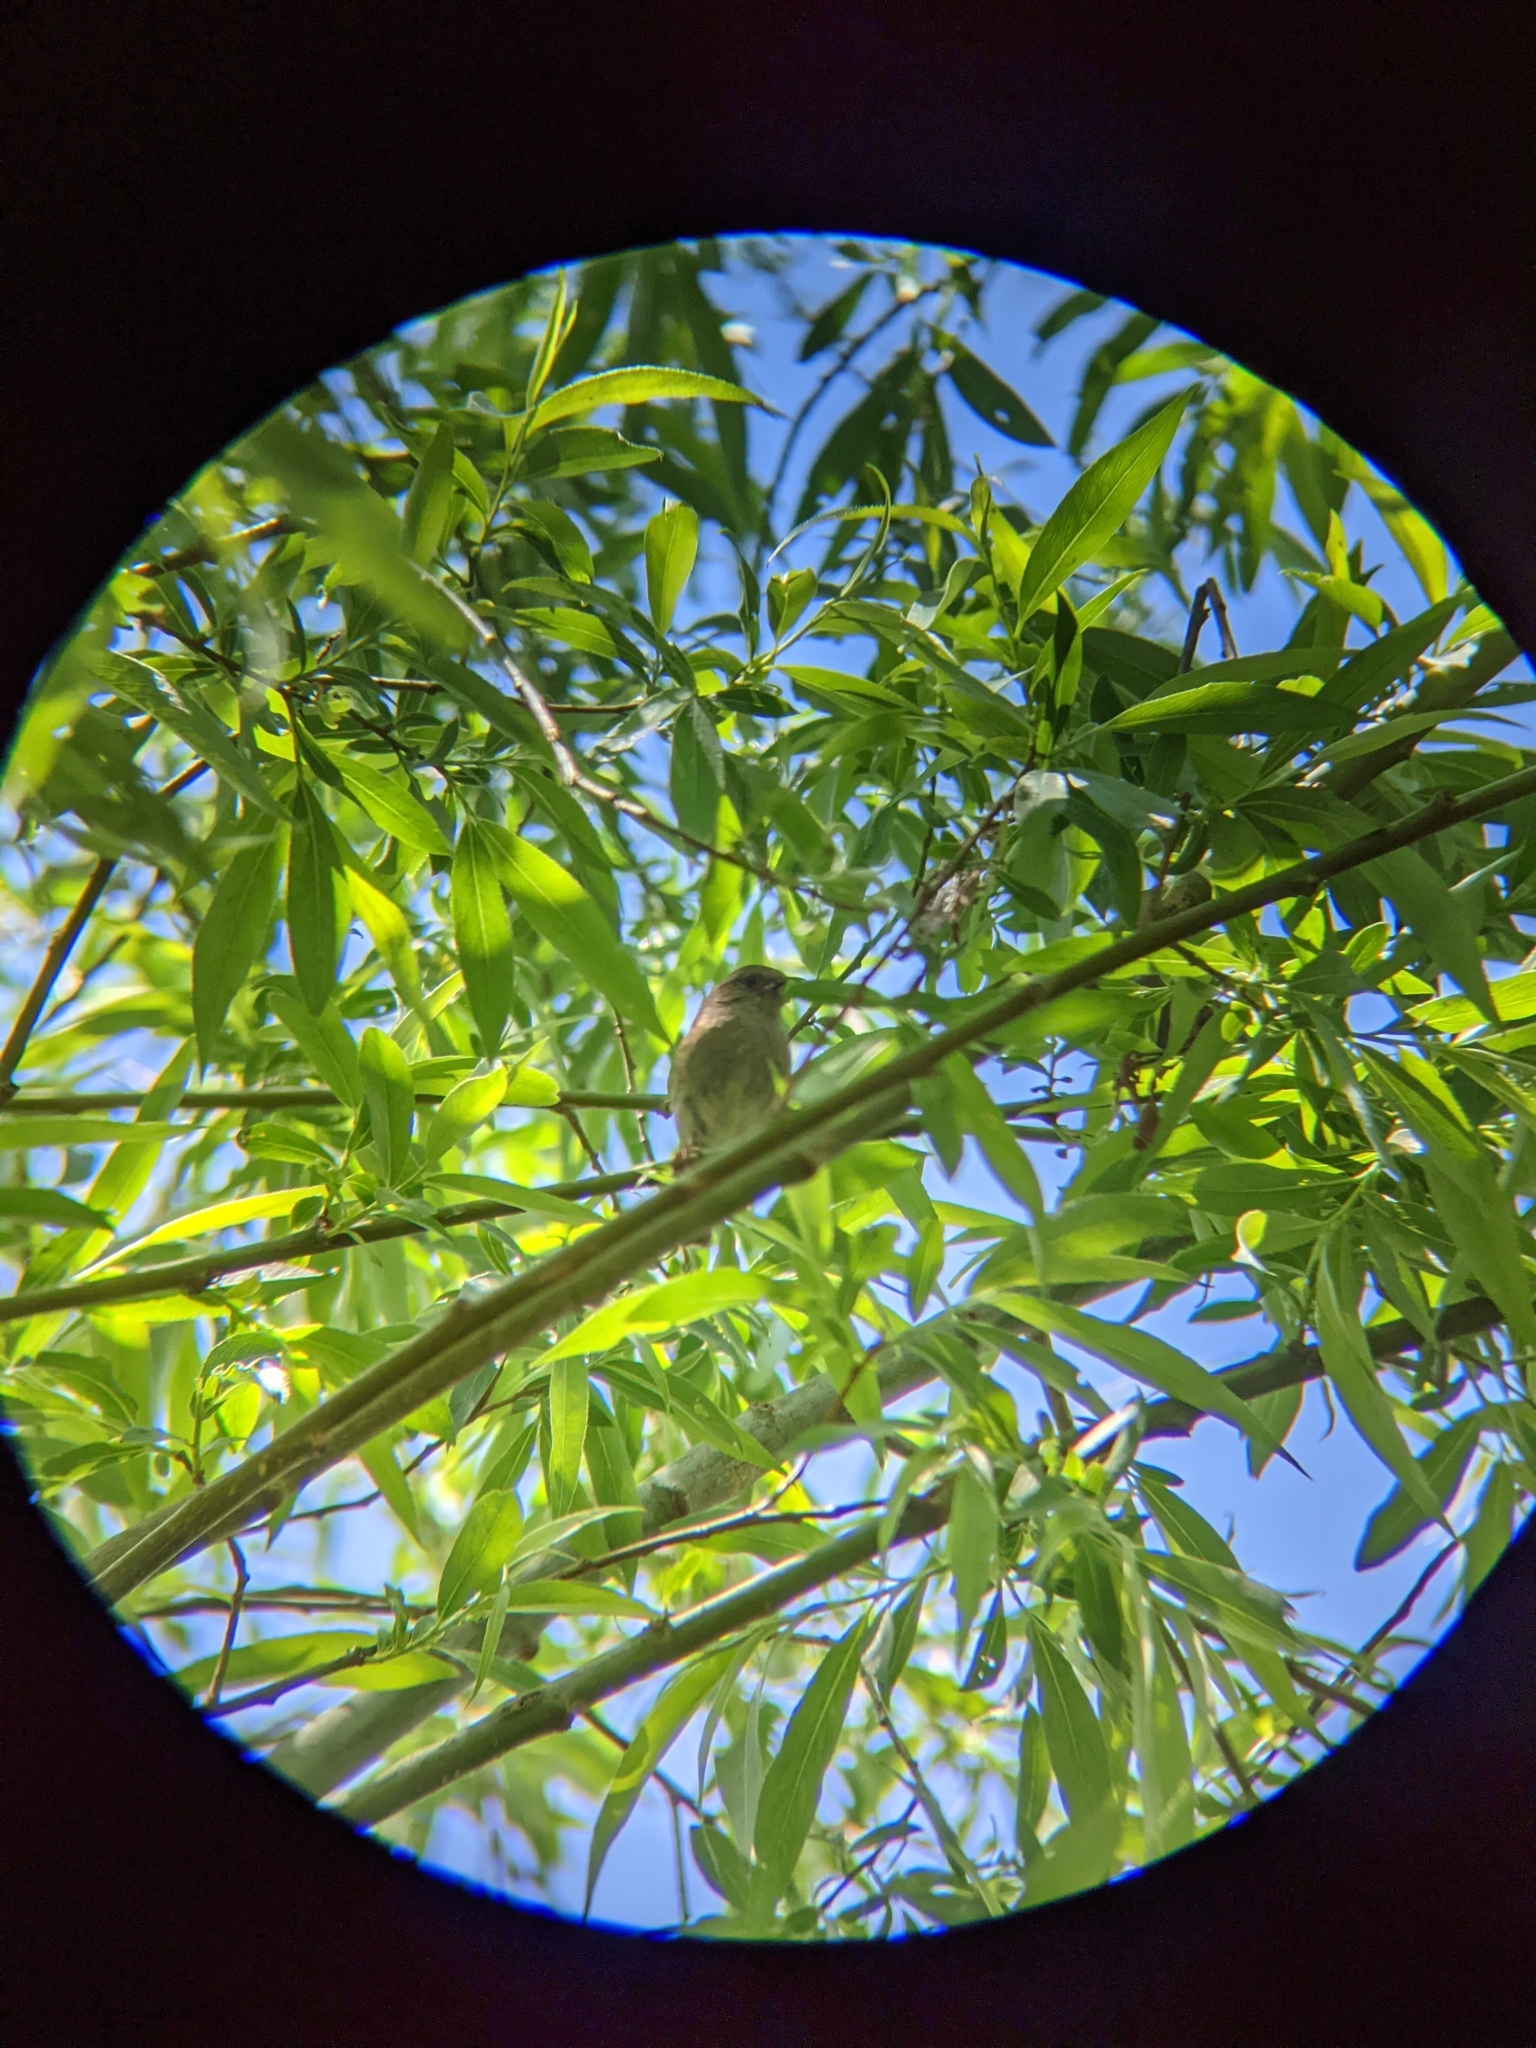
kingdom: Animalia
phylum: Chordata
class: Aves
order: Passeriformes
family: Prunellidae
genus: Prunella
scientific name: Prunella modularis
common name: Dunnock
